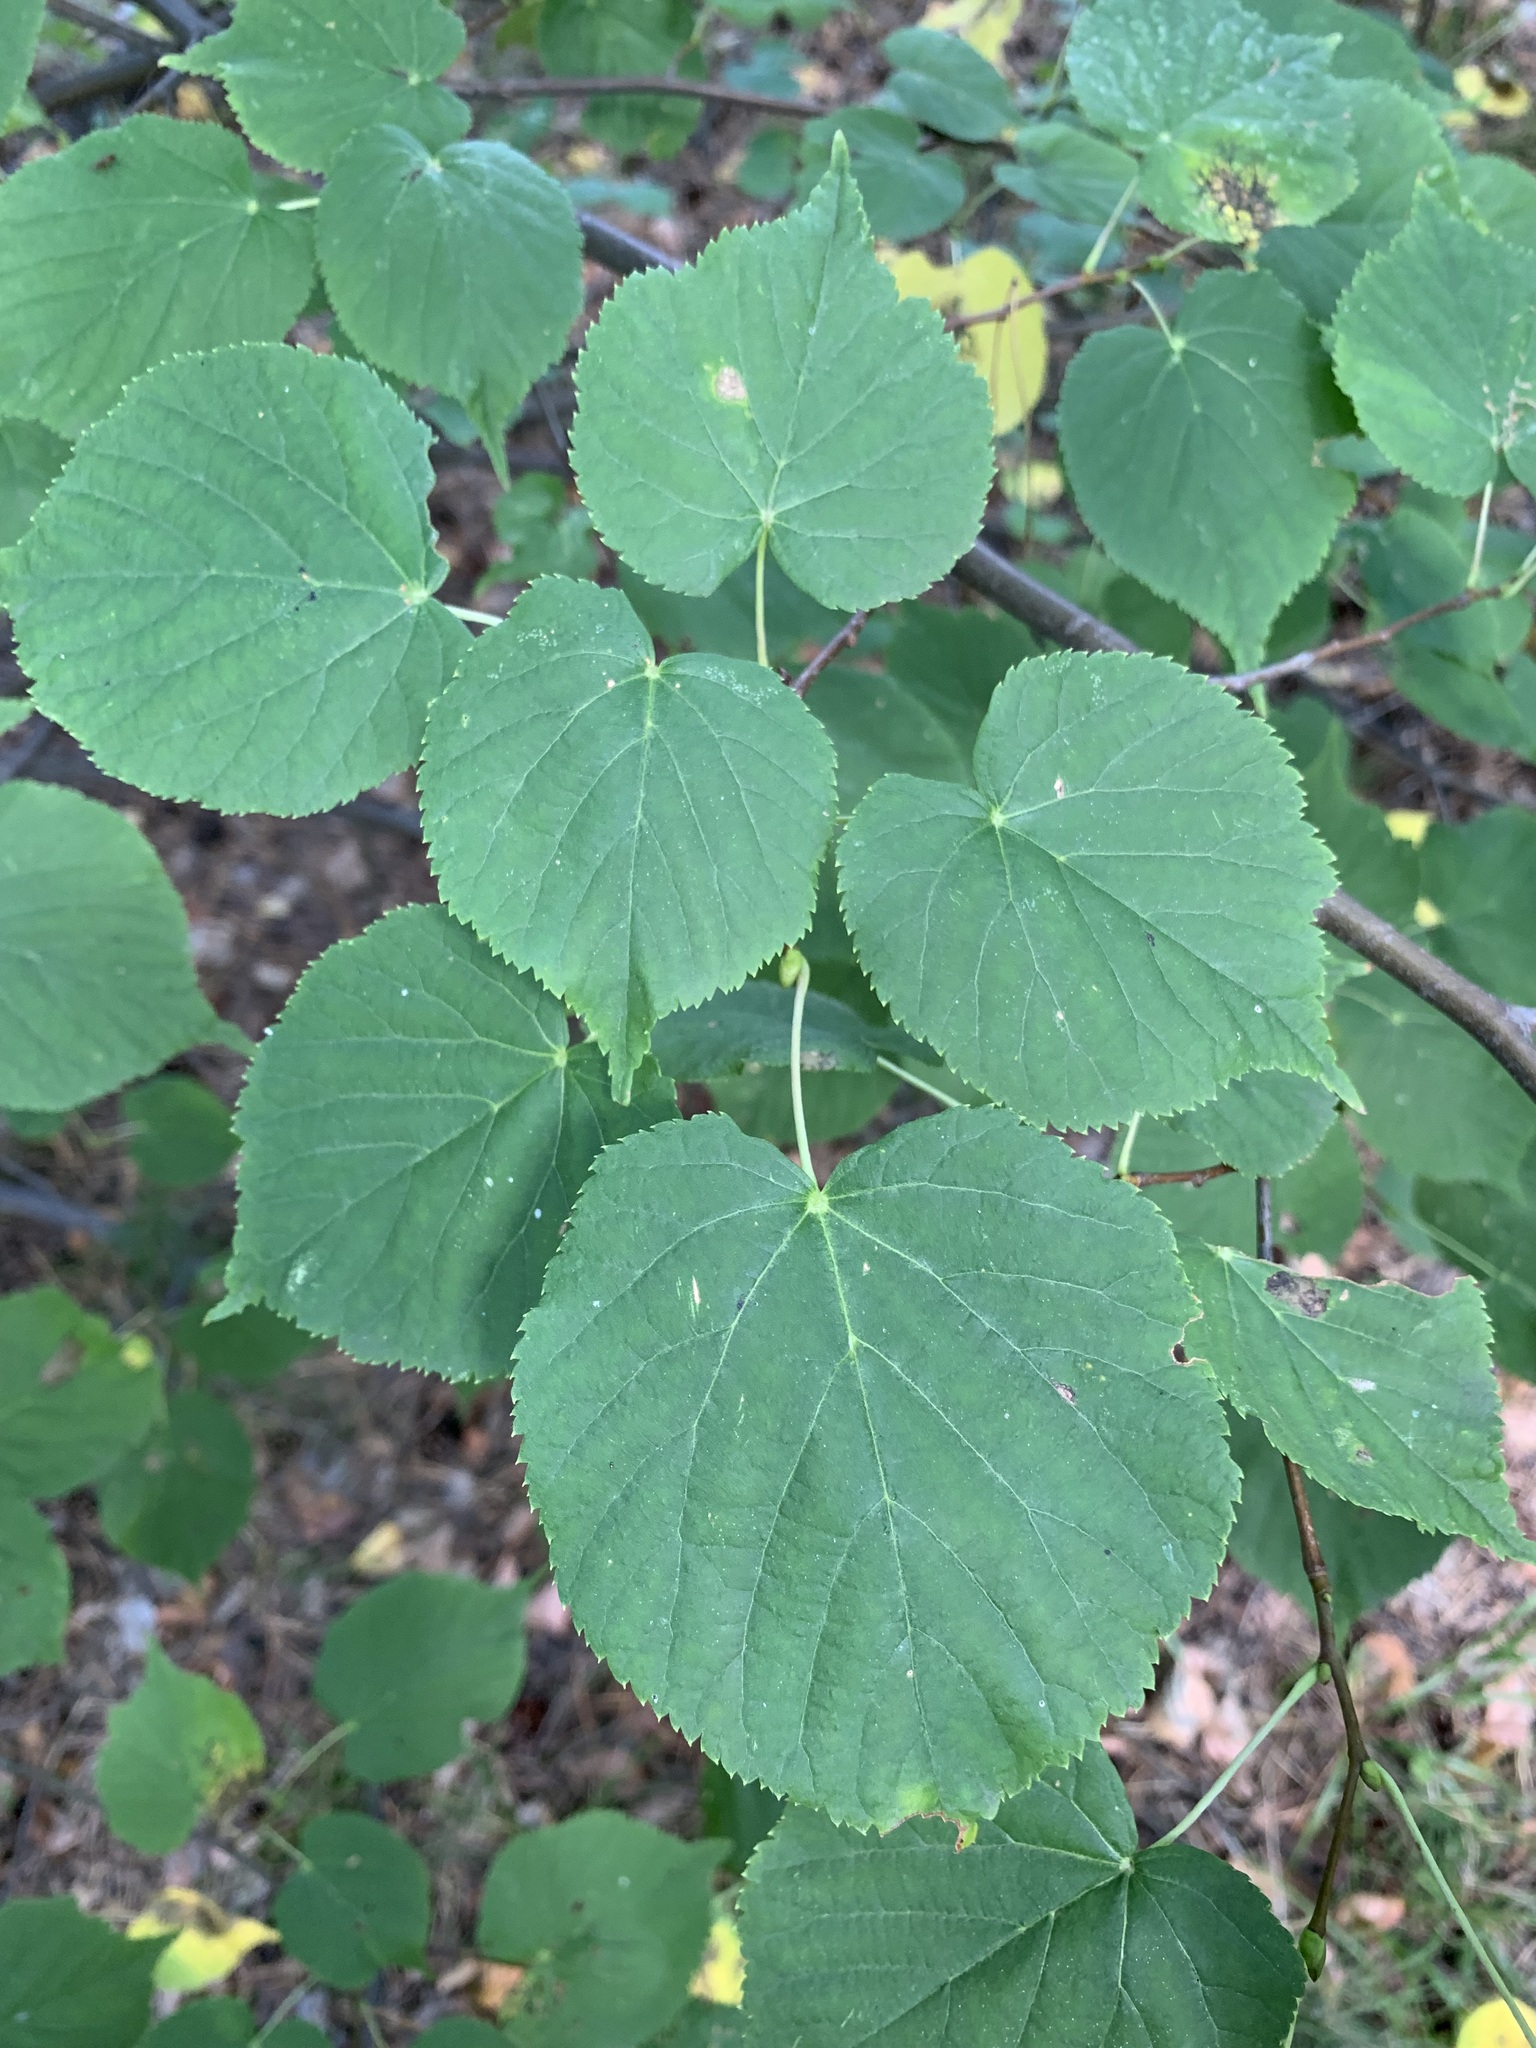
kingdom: Plantae
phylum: Tracheophyta
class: Magnoliopsida
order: Malvales
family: Malvaceae
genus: Tilia
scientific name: Tilia cordata
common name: Small-leaved lime
